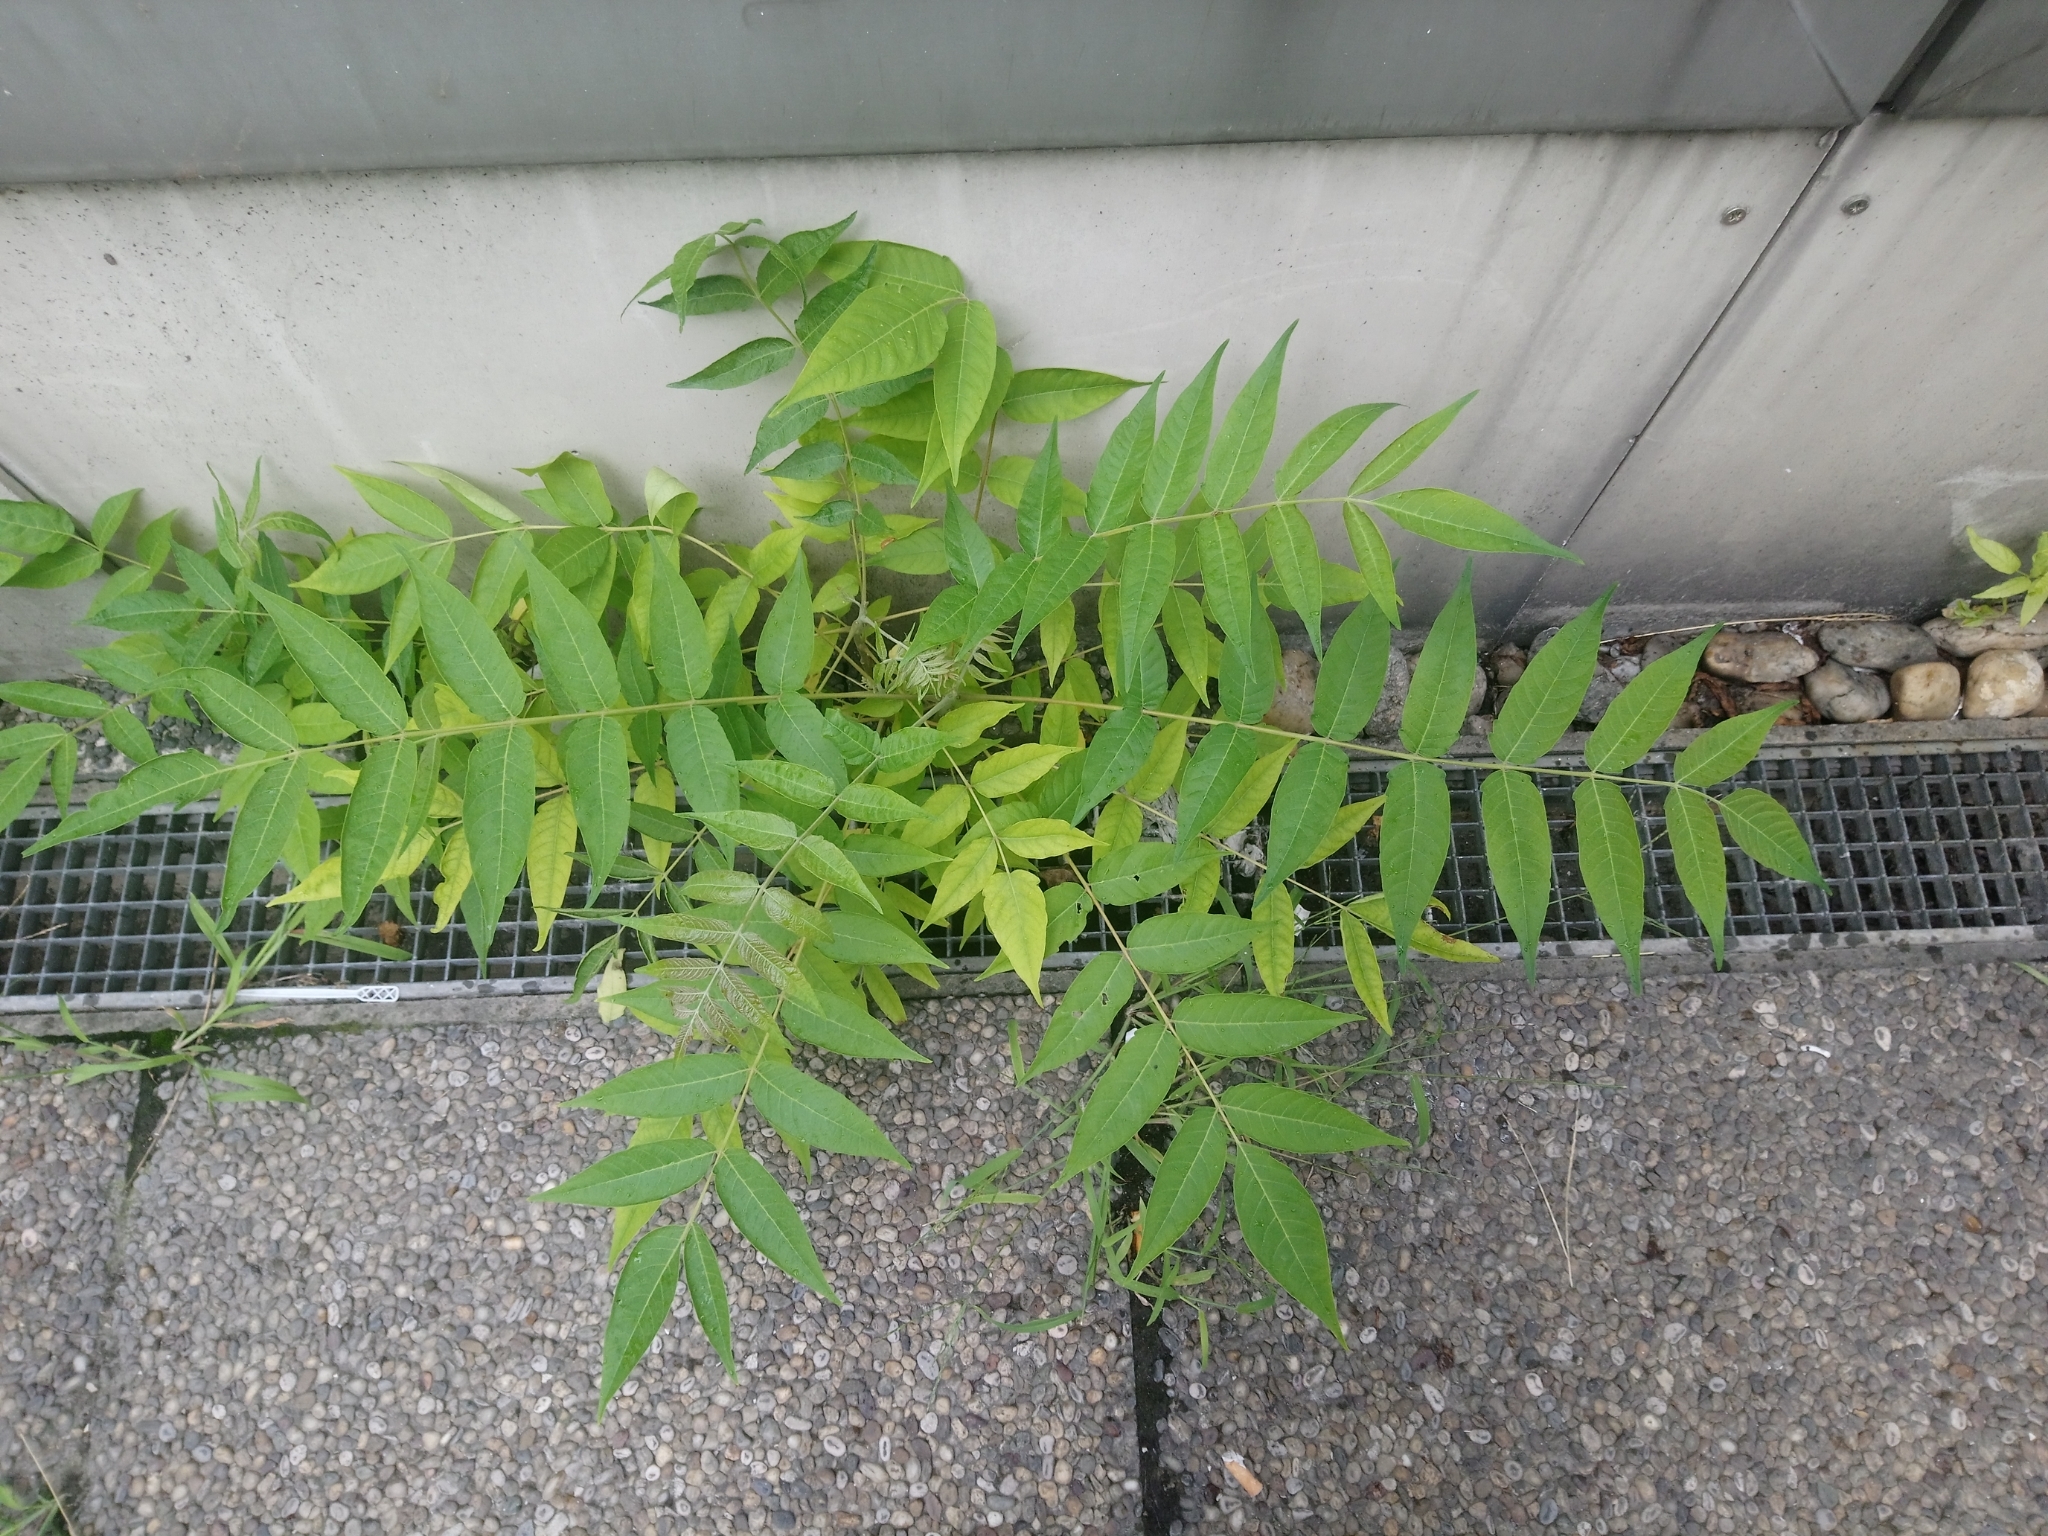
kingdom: Plantae
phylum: Tracheophyta
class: Magnoliopsida
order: Sapindales
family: Simaroubaceae
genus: Ailanthus
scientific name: Ailanthus altissima
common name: Tree-of-heaven
